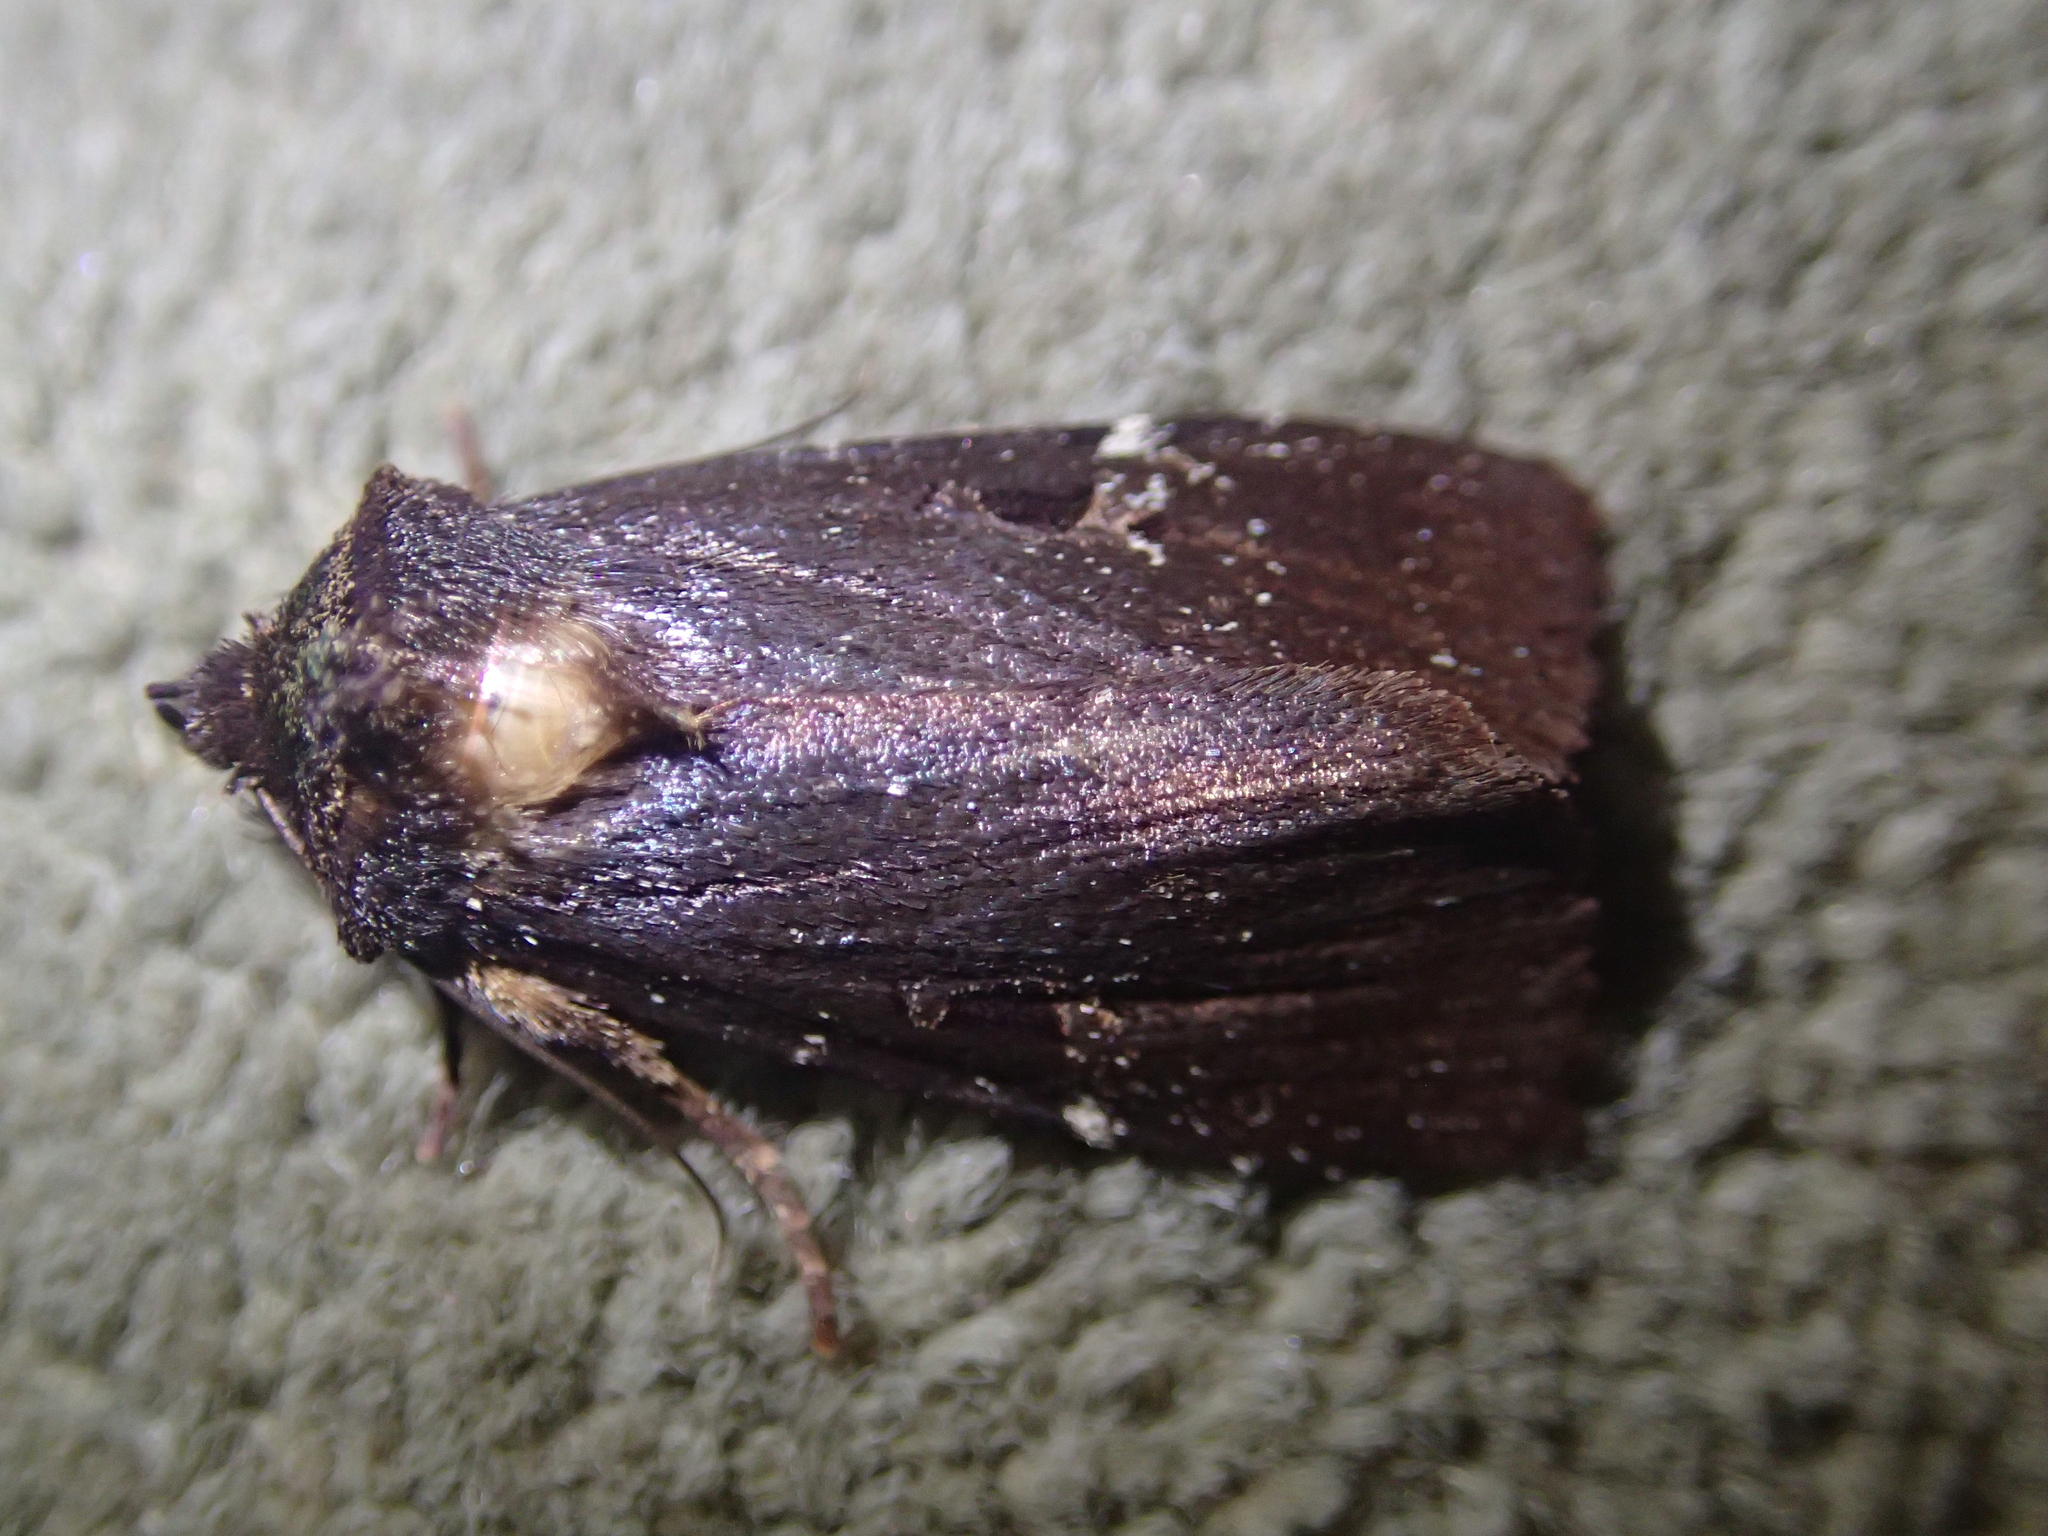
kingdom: Animalia
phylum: Arthropoda
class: Insecta
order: Lepidoptera
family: Noctuidae
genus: Austramathes
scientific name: Austramathes purpurea
